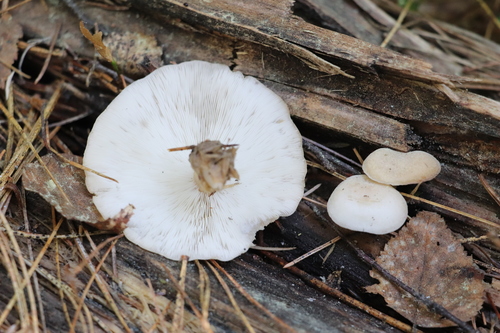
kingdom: Fungi
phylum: Basidiomycota
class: Agaricomycetes
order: Agaricales
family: Lyophyllaceae
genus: Ossicaulis
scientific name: Ossicaulis lignatilis
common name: Mealy oyster
